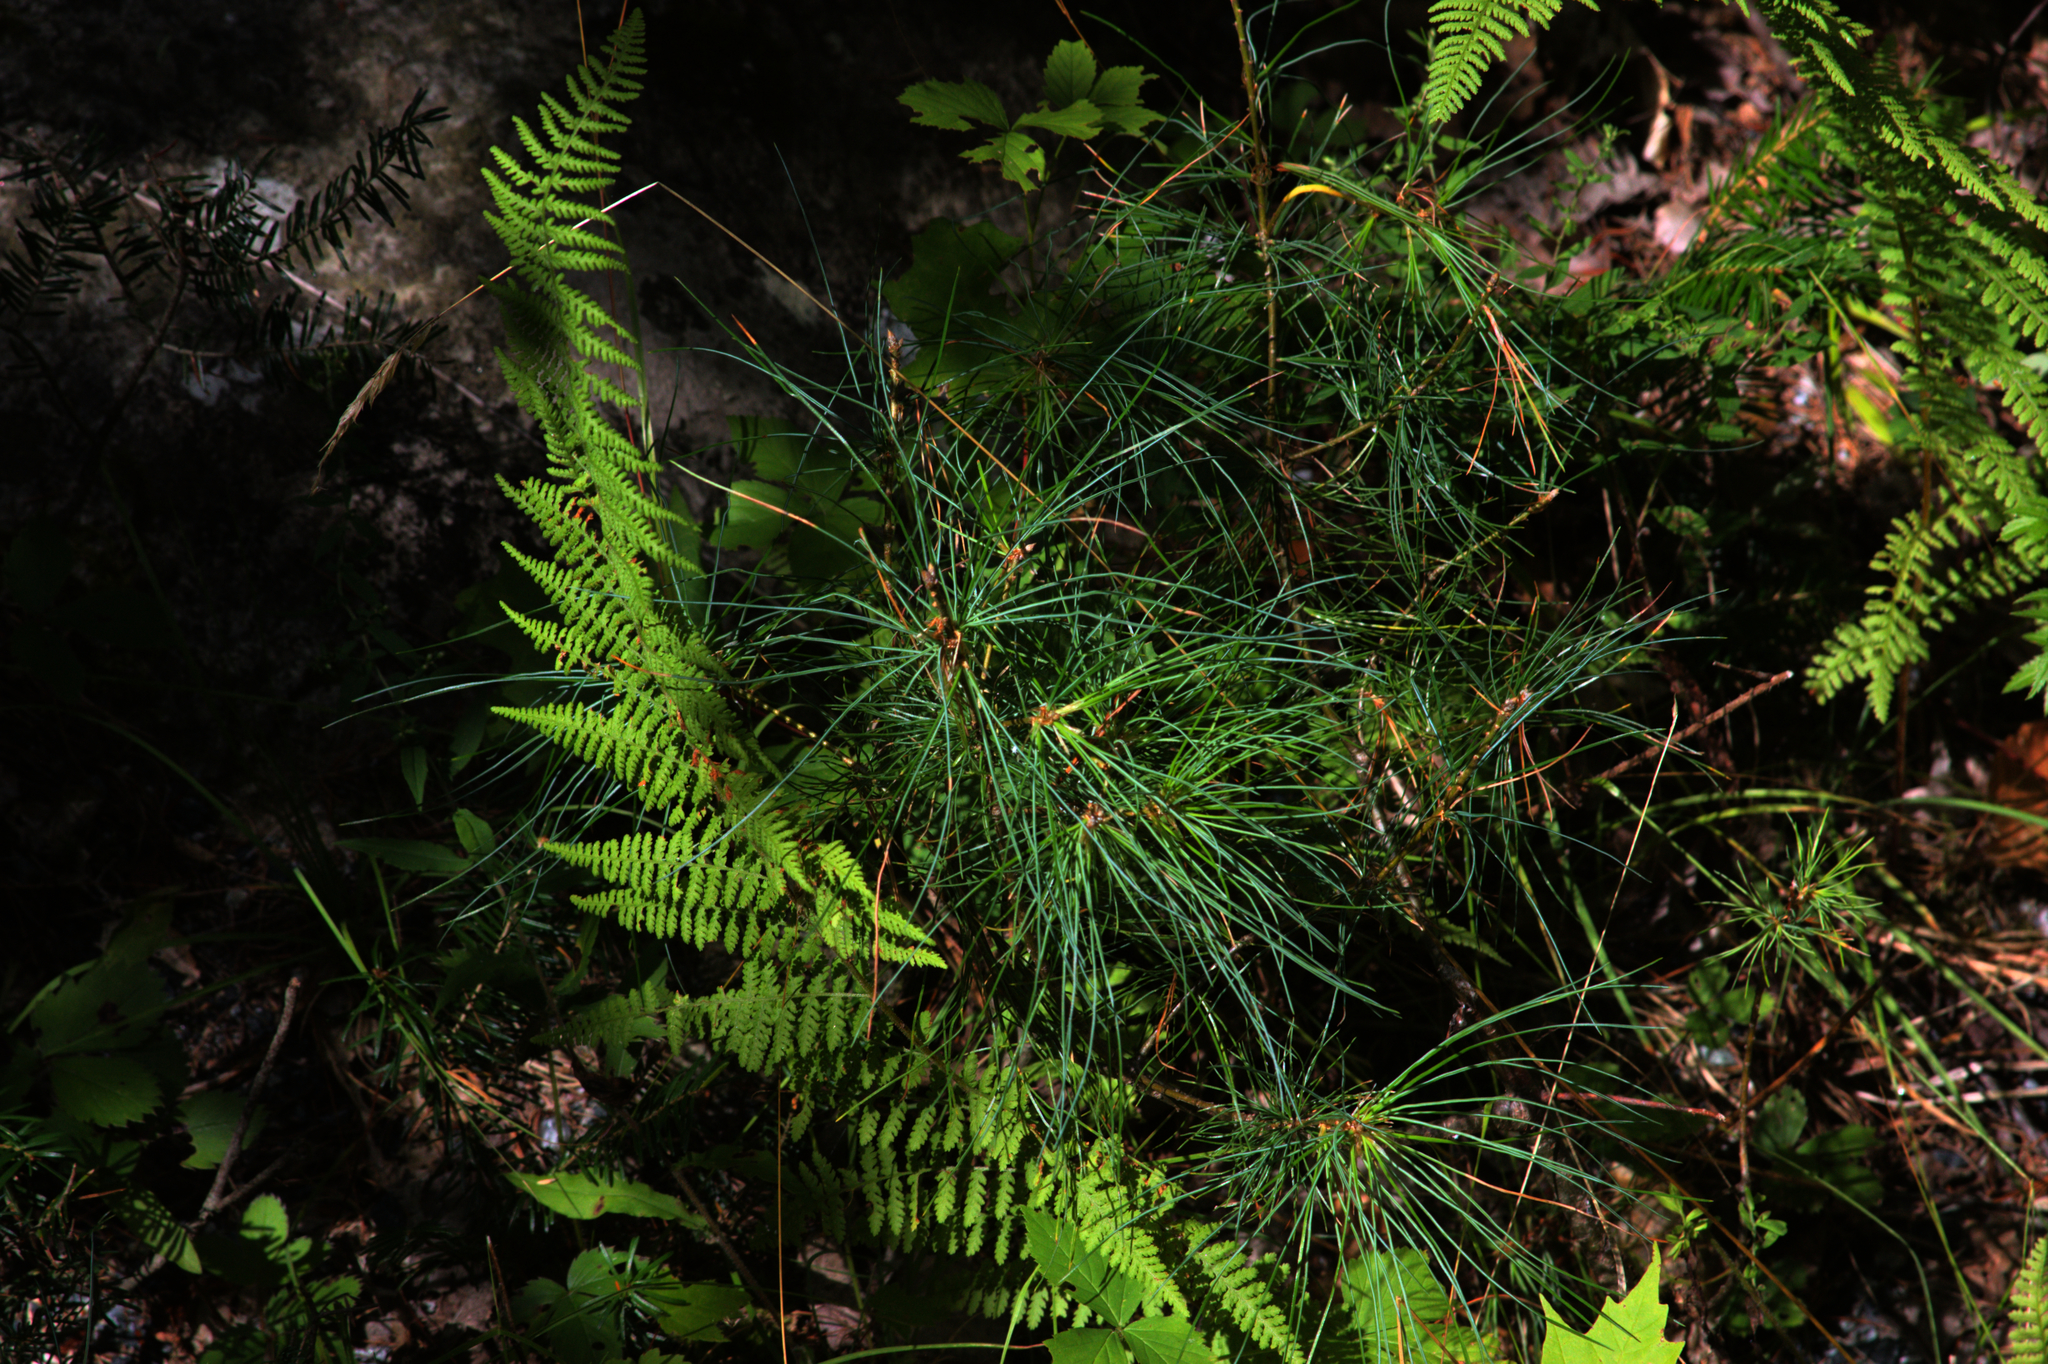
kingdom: Plantae
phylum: Tracheophyta
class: Pinopsida
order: Pinales
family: Pinaceae
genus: Pinus
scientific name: Pinus strobus
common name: Weymouth pine
